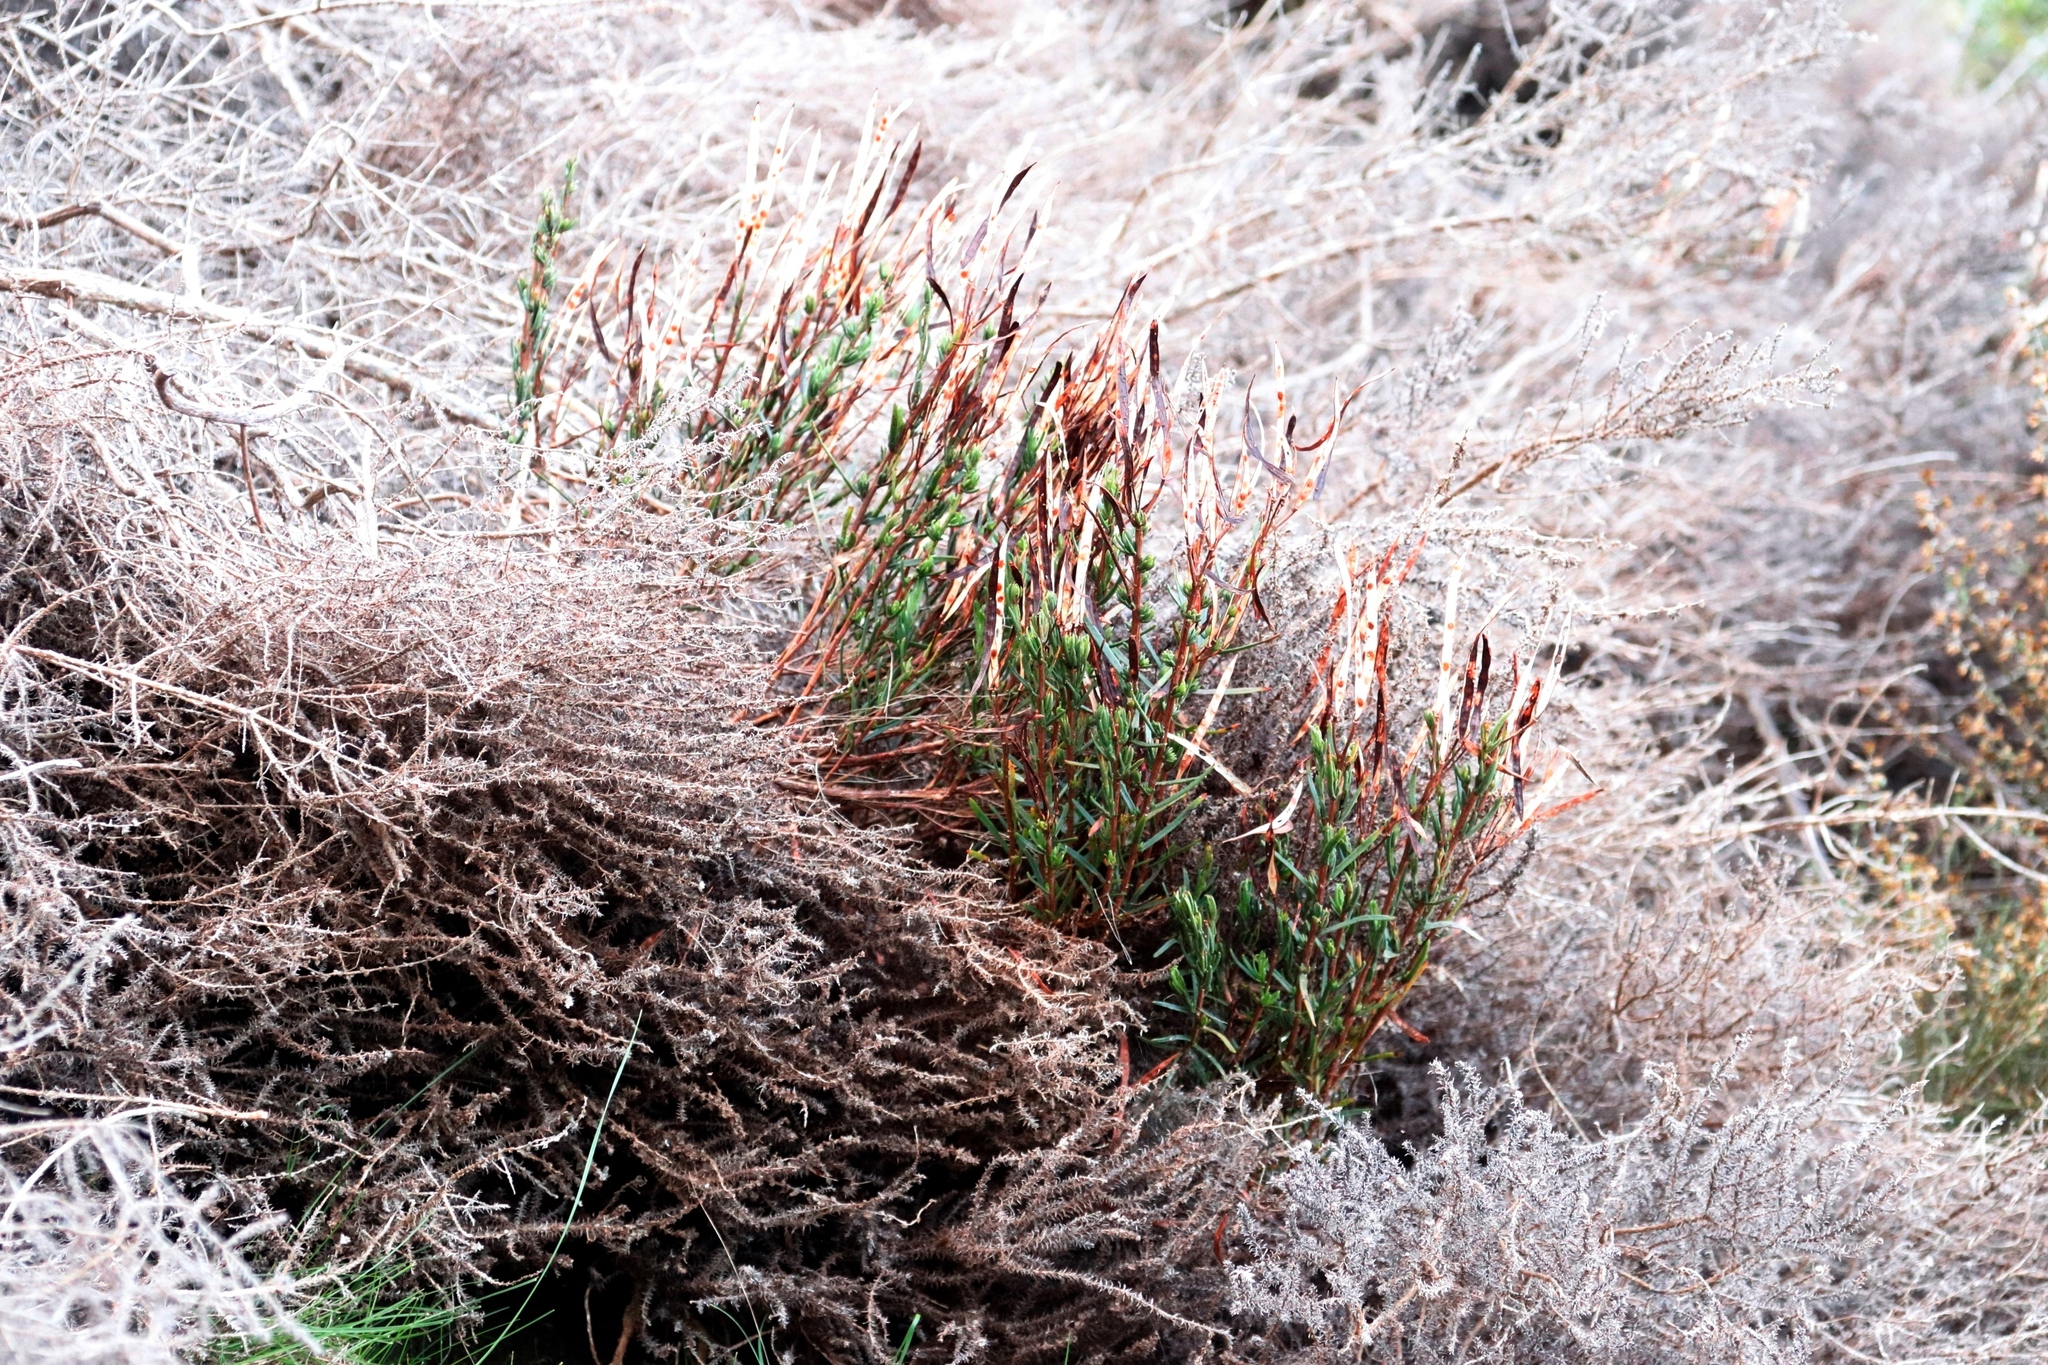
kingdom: Plantae
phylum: Tracheophyta
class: Magnoliopsida
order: Brassicales
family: Brassicaceae
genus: Heliophila
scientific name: Heliophila scoparia
